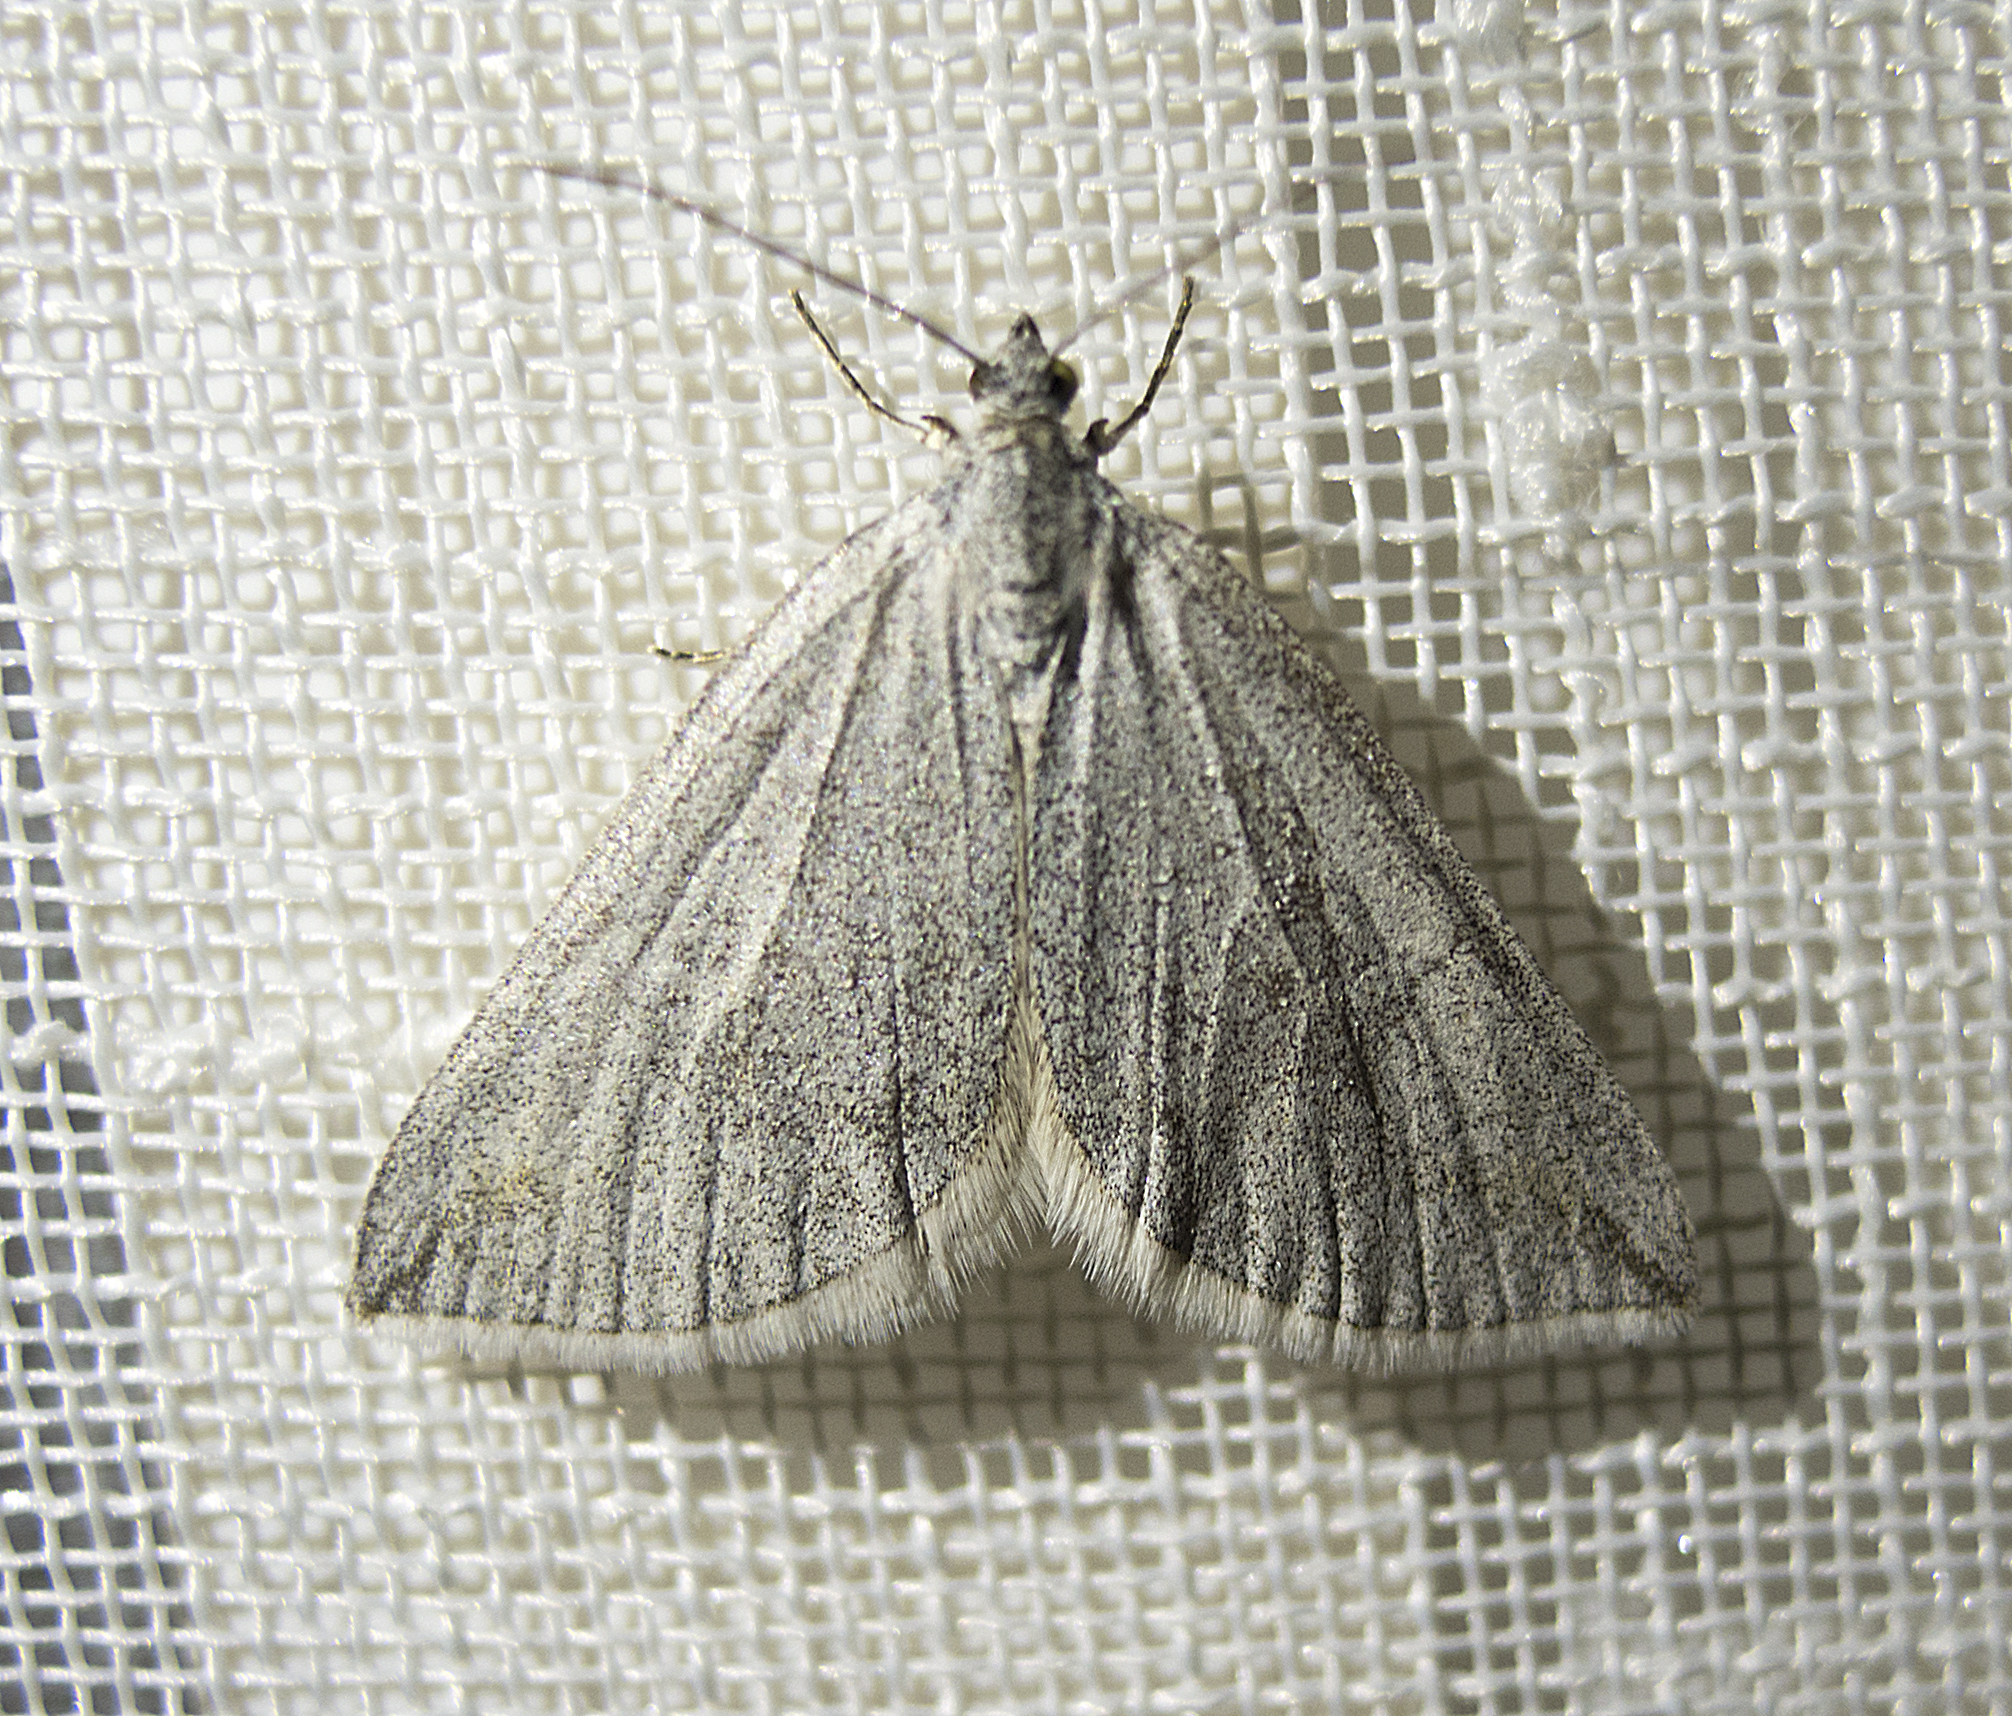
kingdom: Animalia
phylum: Arthropoda
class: Insecta
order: Lepidoptera
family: Geometridae
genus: Lithostege
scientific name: Lithostege griseata
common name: Grey carpet
